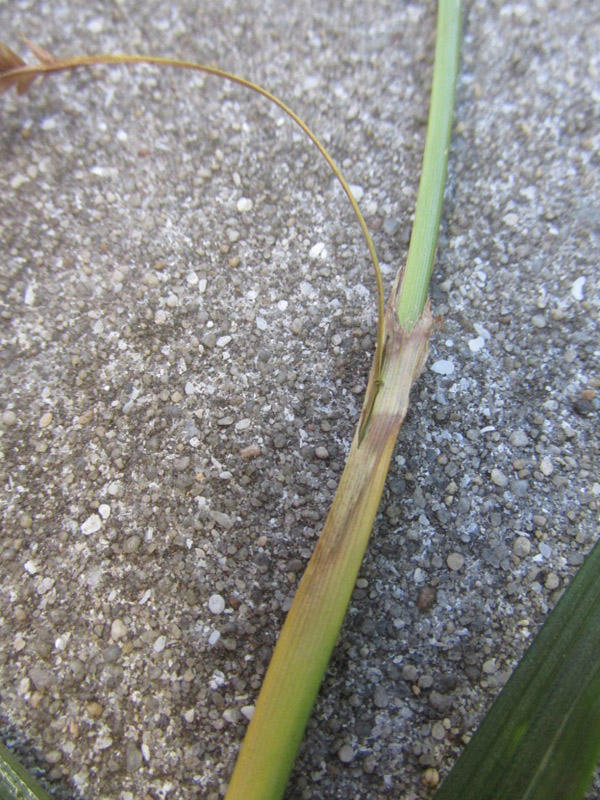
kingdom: Plantae
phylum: Tracheophyta
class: Liliopsida
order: Poales
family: Cyperaceae
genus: Carex
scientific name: Carex aethiopica
